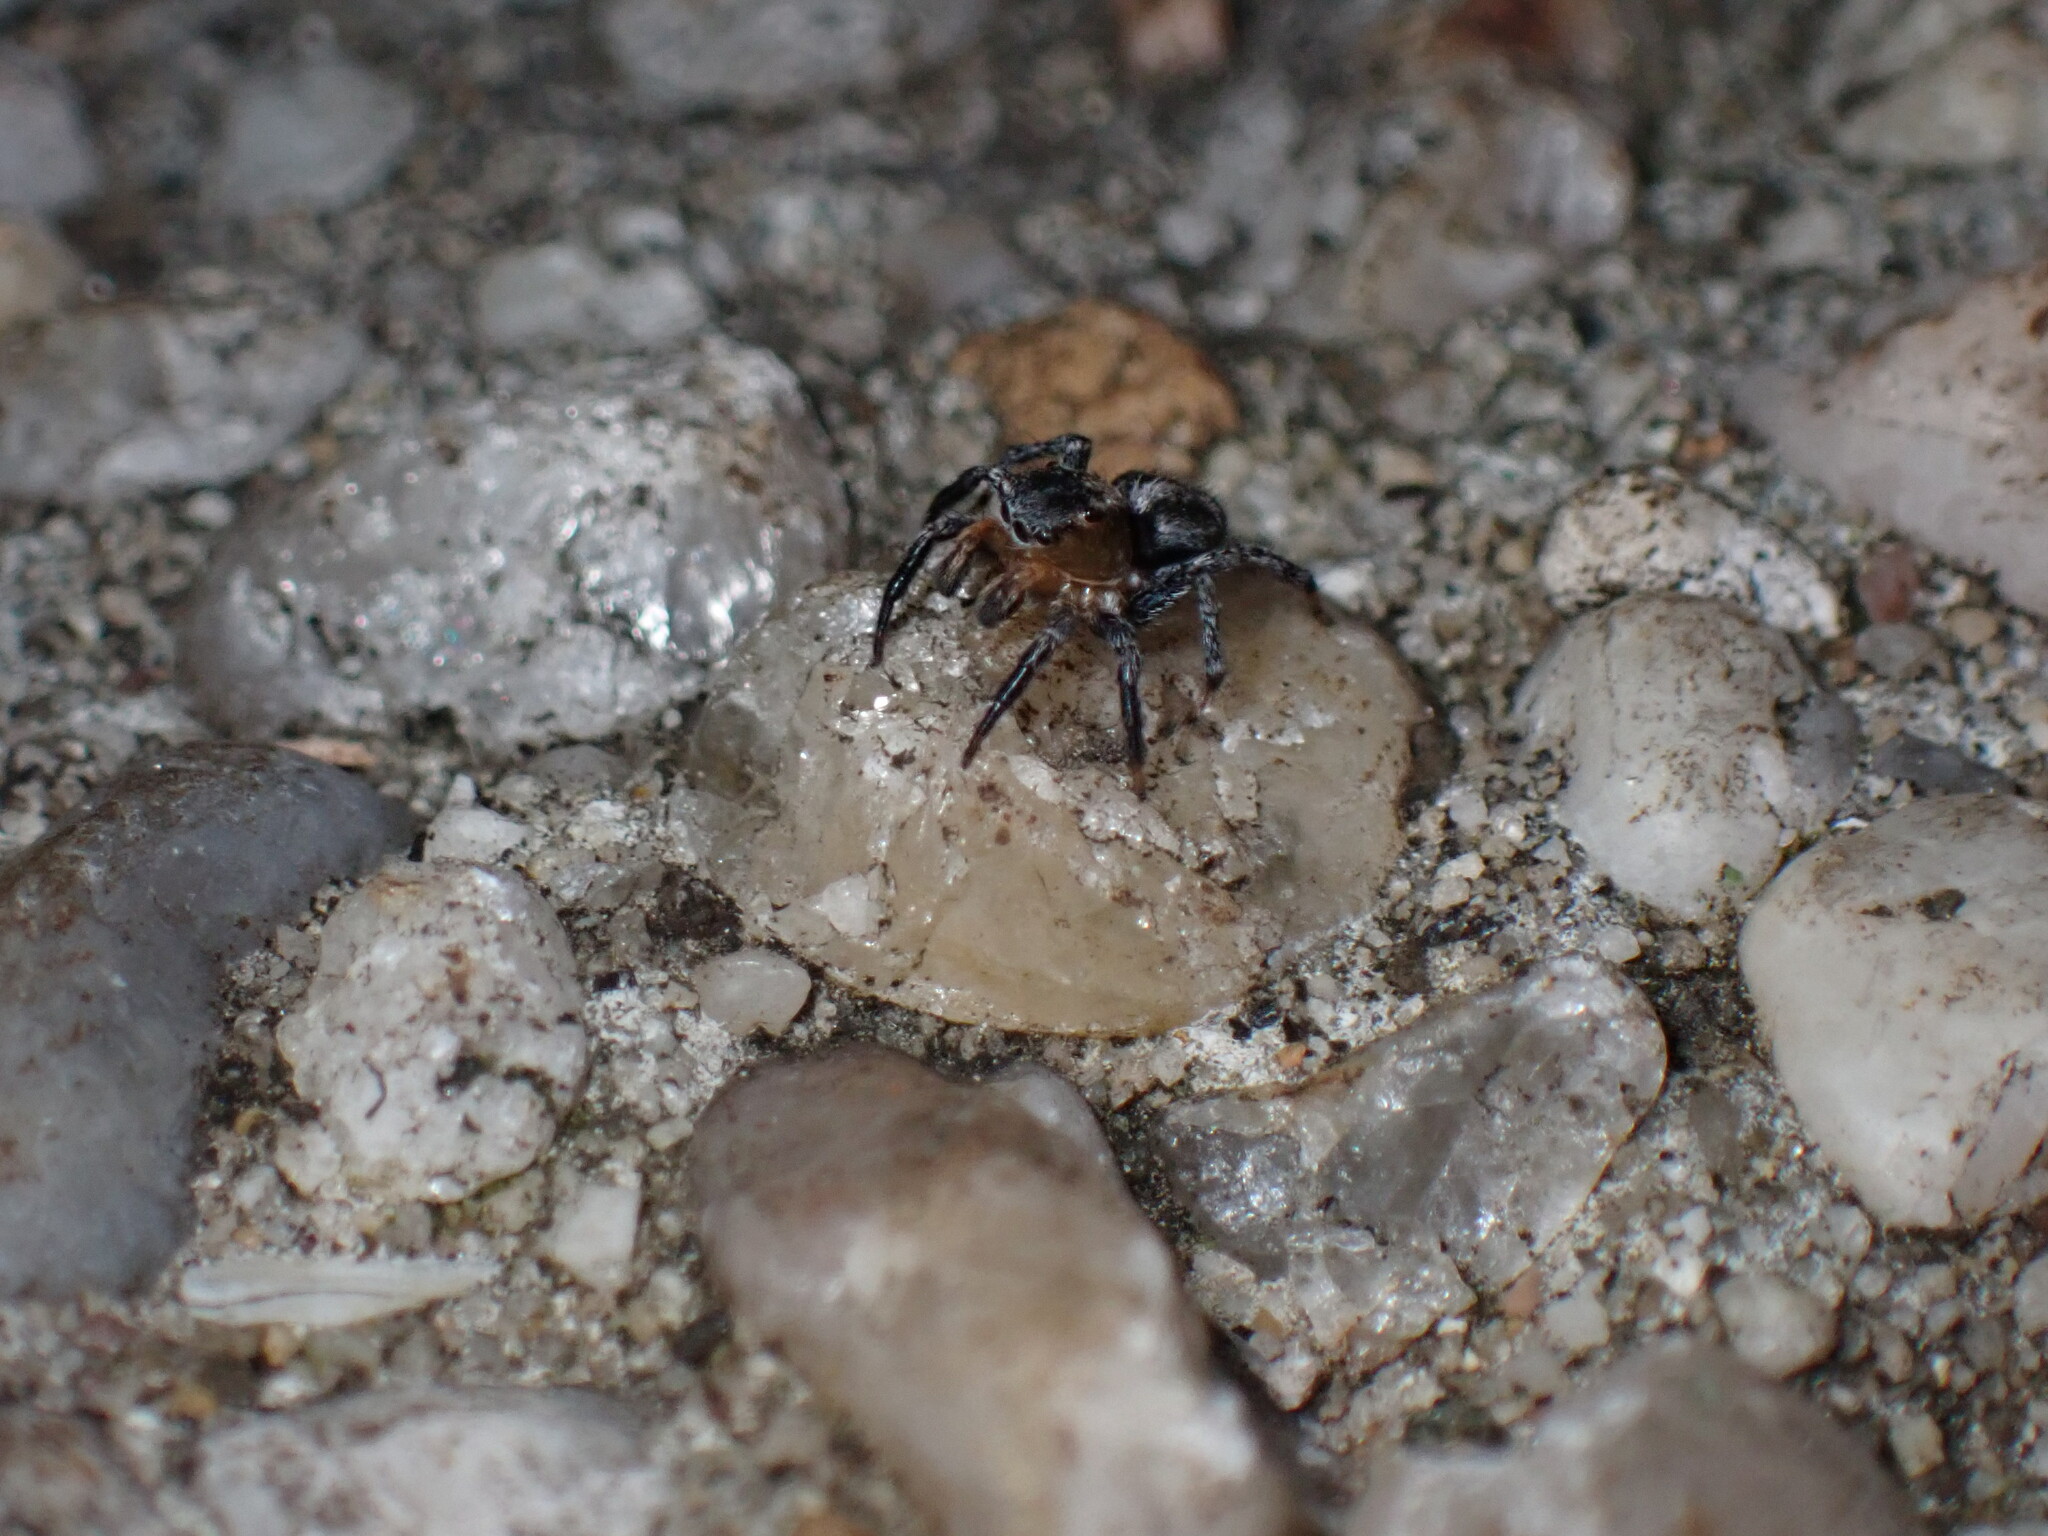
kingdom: Animalia
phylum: Arthropoda
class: Arachnida
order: Araneae
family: Salticidae
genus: Naphrys
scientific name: Naphrys pulex
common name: Flea jumping spider
